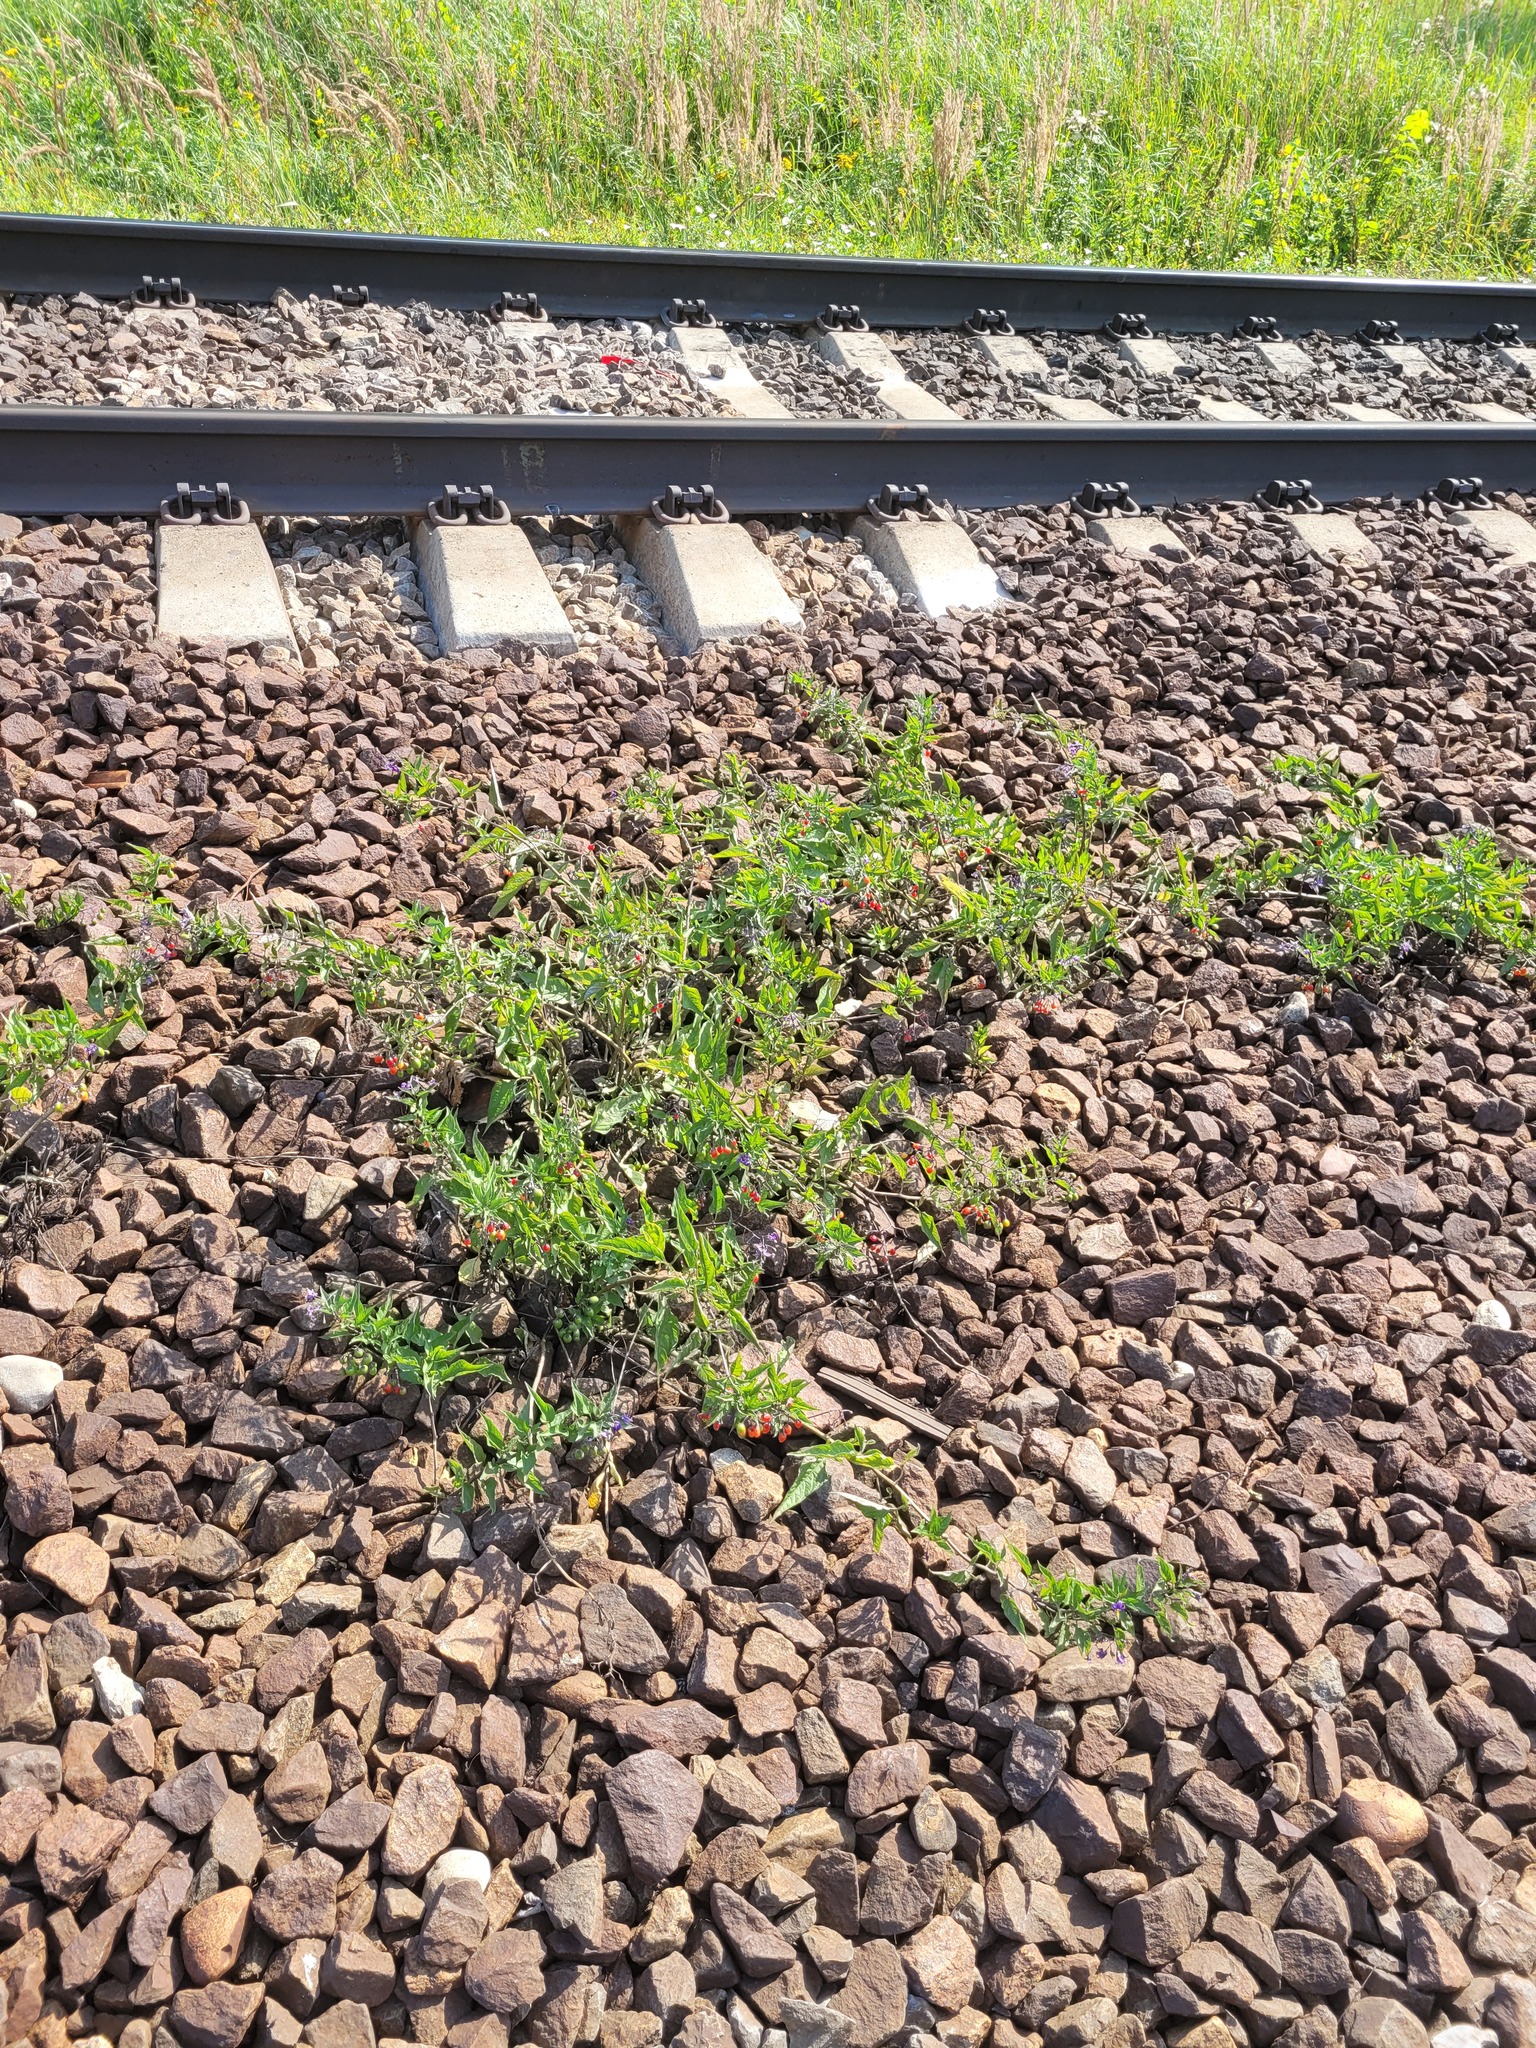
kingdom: Plantae
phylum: Tracheophyta
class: Magnoliopsida
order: Solanales
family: Solanaceae
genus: Solanum
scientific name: Solanum dulcamara
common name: Climbing nightshade
